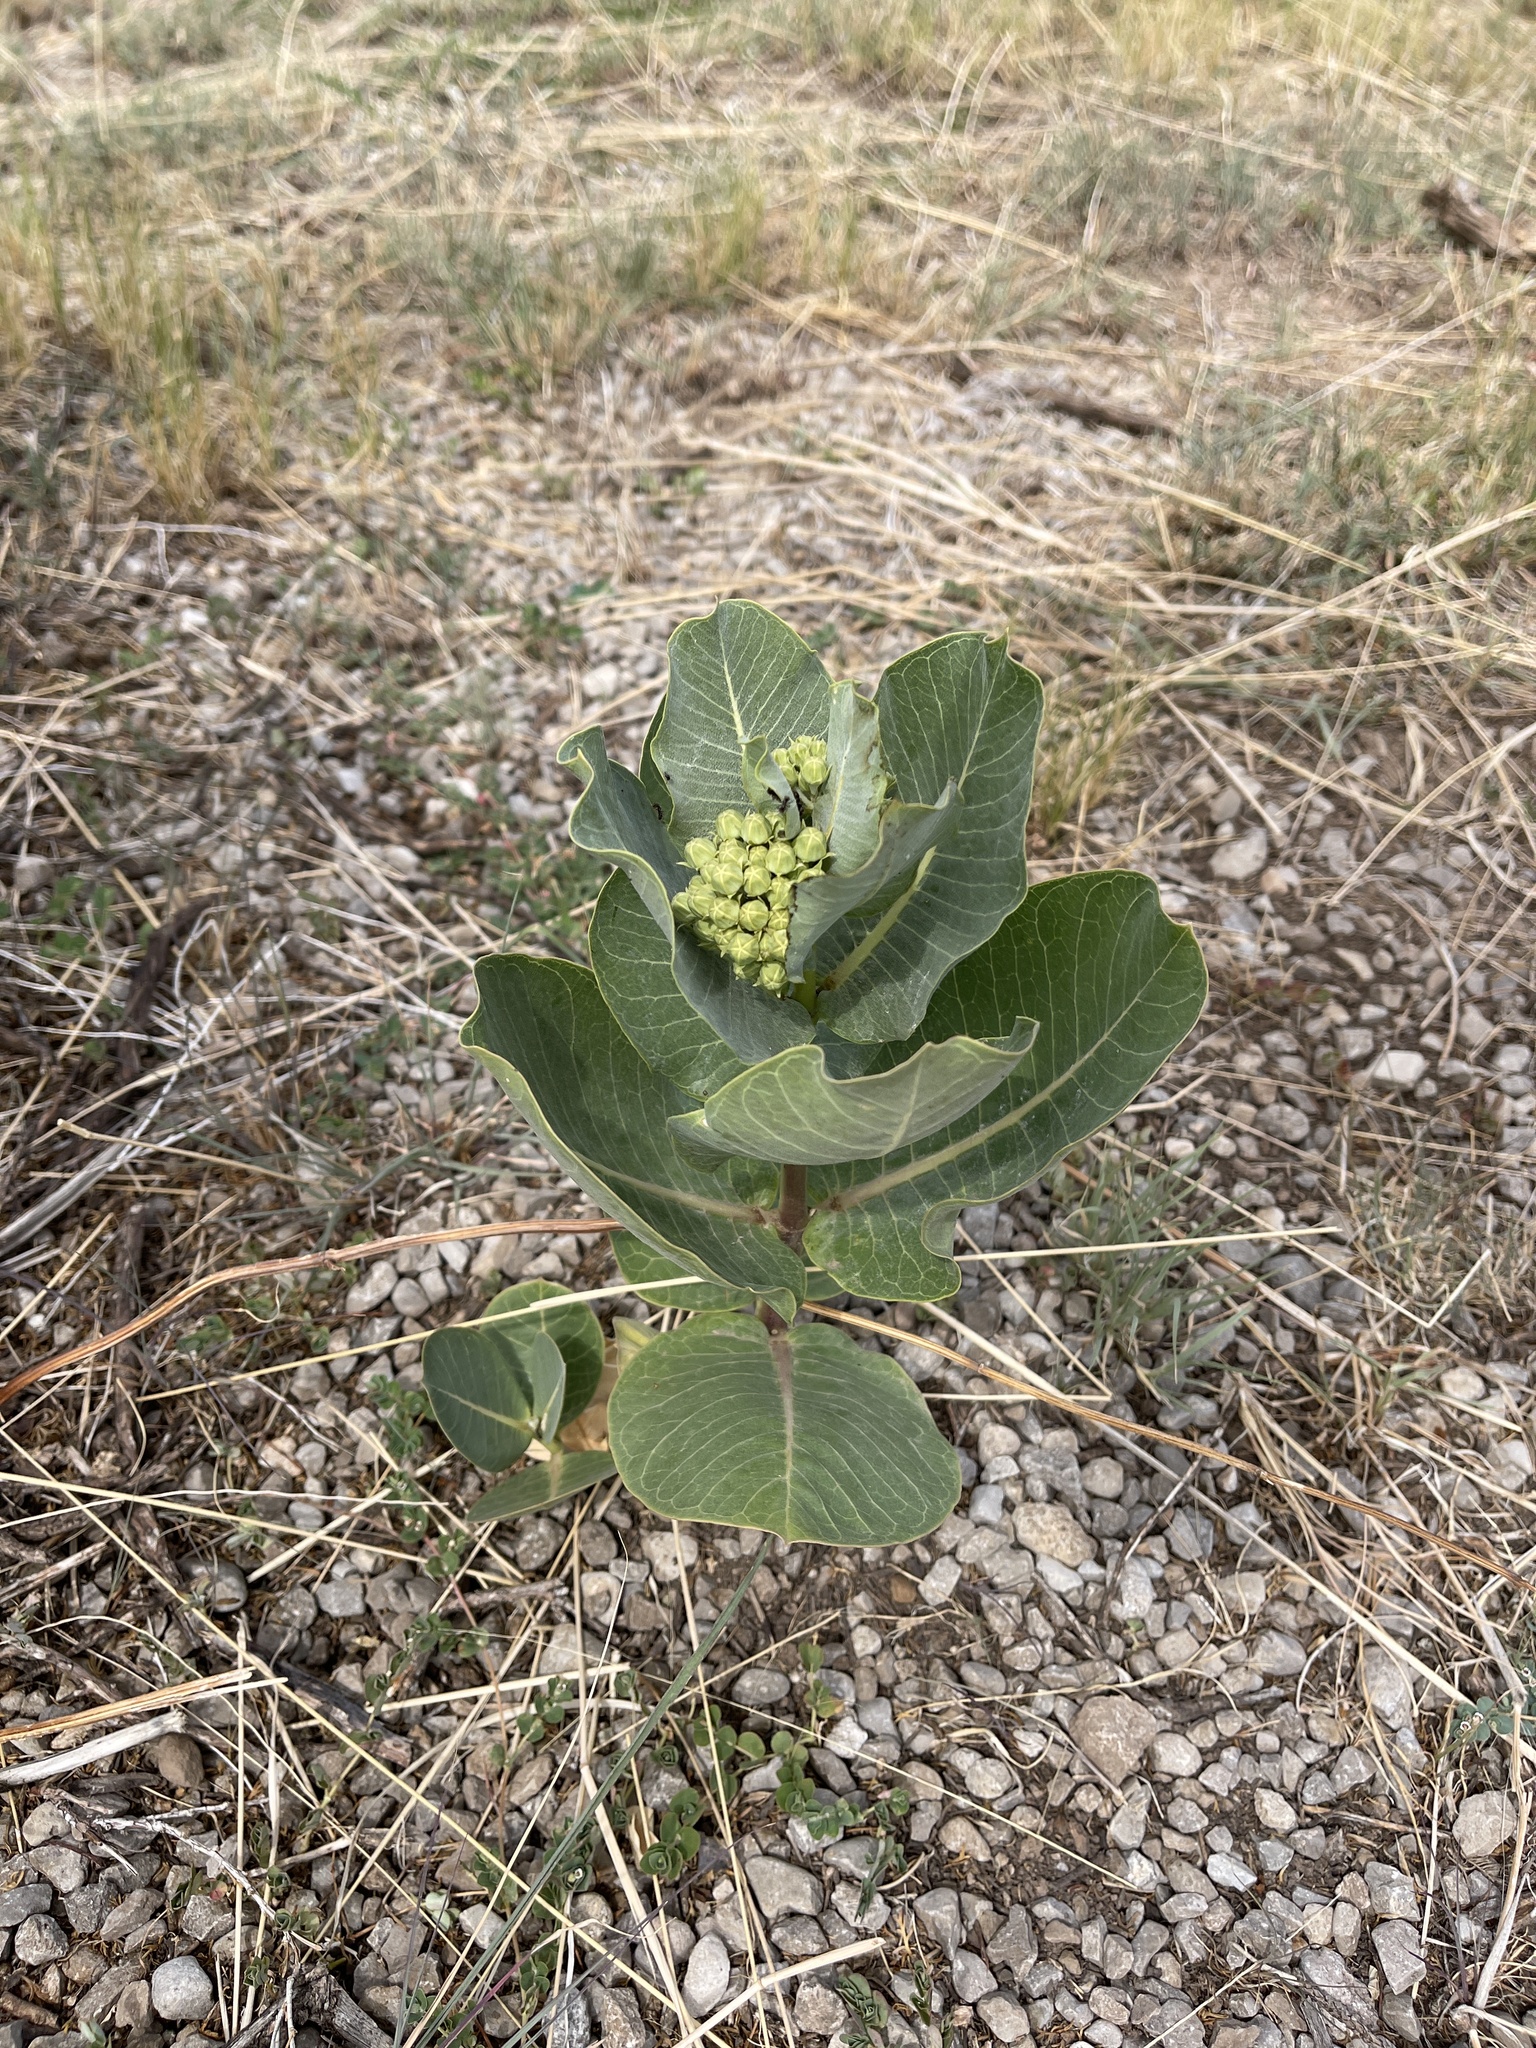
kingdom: Plantae
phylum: Tracheophyta
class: Magnoliopsida
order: Gentianales
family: Apocynaceae
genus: Asclepias
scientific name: Asclepias latifolia
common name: Broadleaf milkweed
